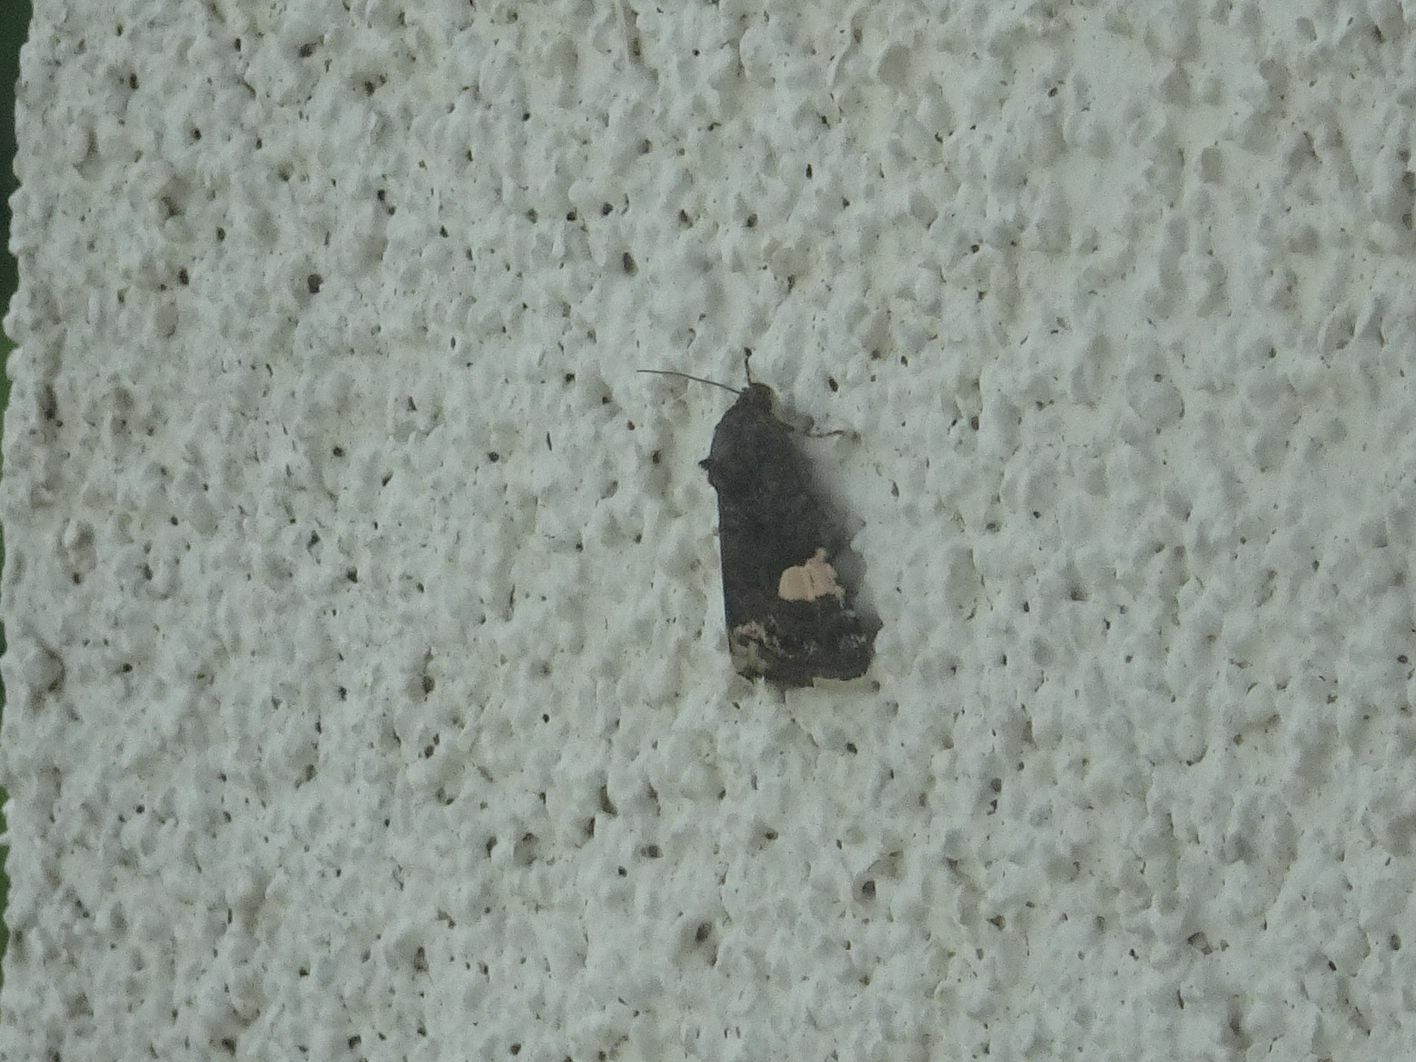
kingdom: Animalia
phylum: Arthropoda
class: Insecta
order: Lepidoptera
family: Erebidae
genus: Tyta
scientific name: Tyta luctuosa
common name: Four-spotted
